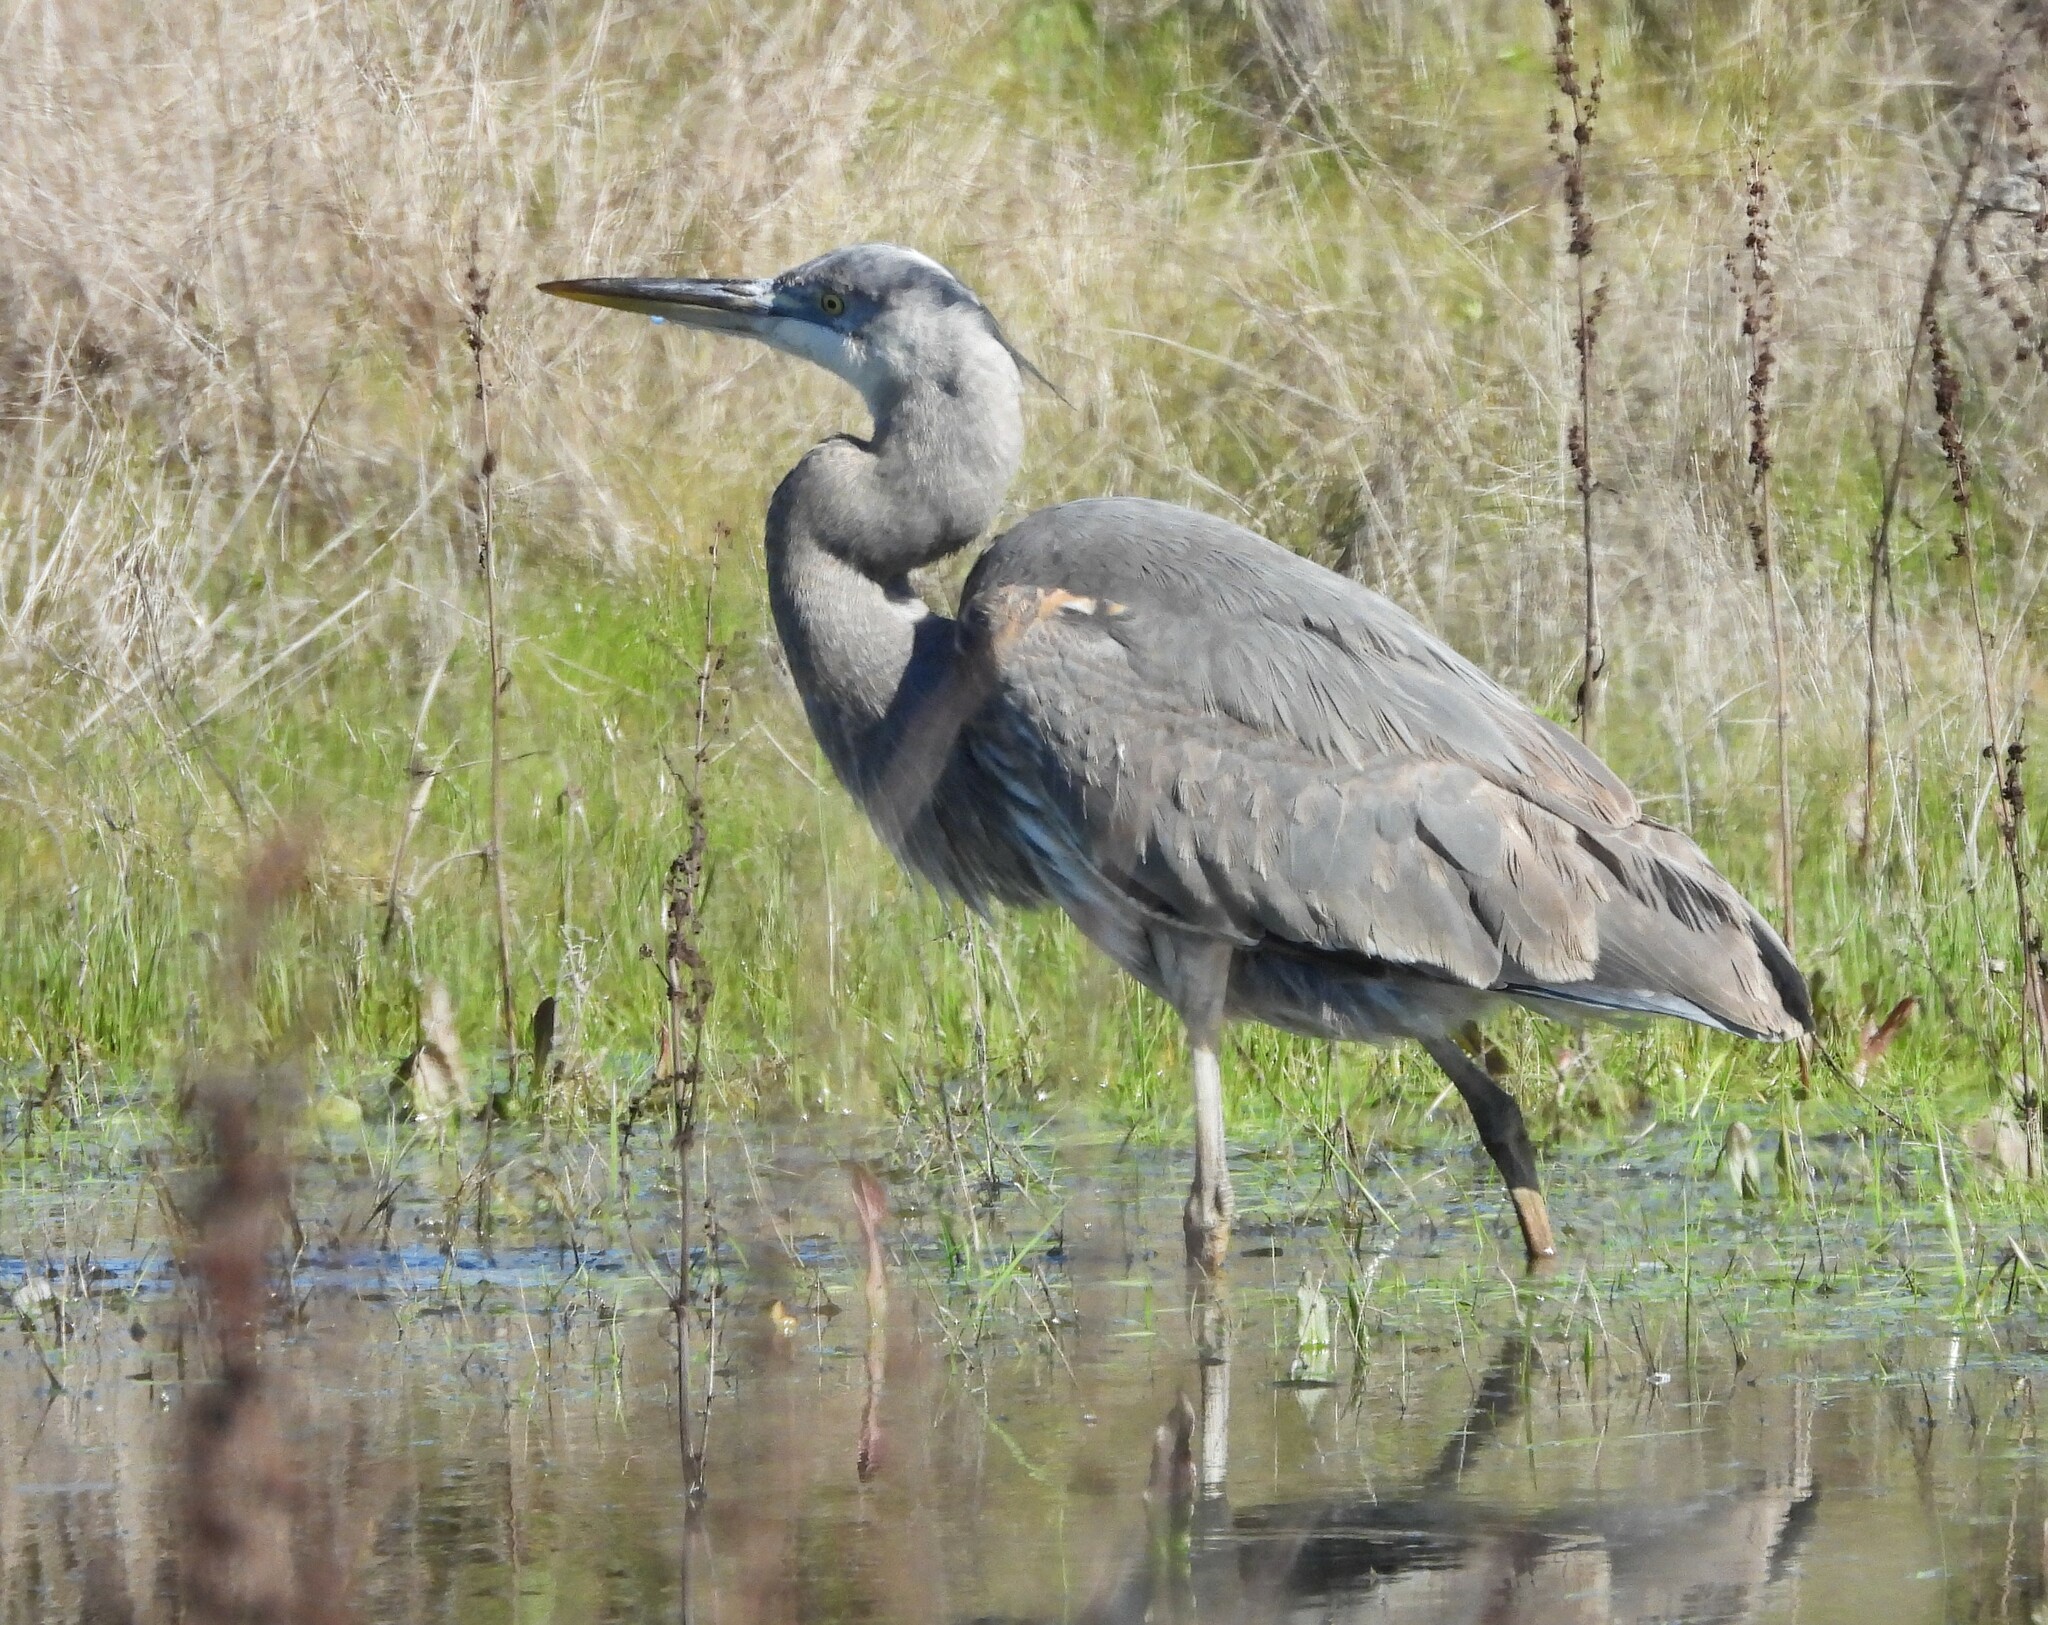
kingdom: Animalia
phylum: Chordata
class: Aves
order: Pelecaniformes
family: Ardeidae
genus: Ardea
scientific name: Ardea herodias
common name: Great blue heron
